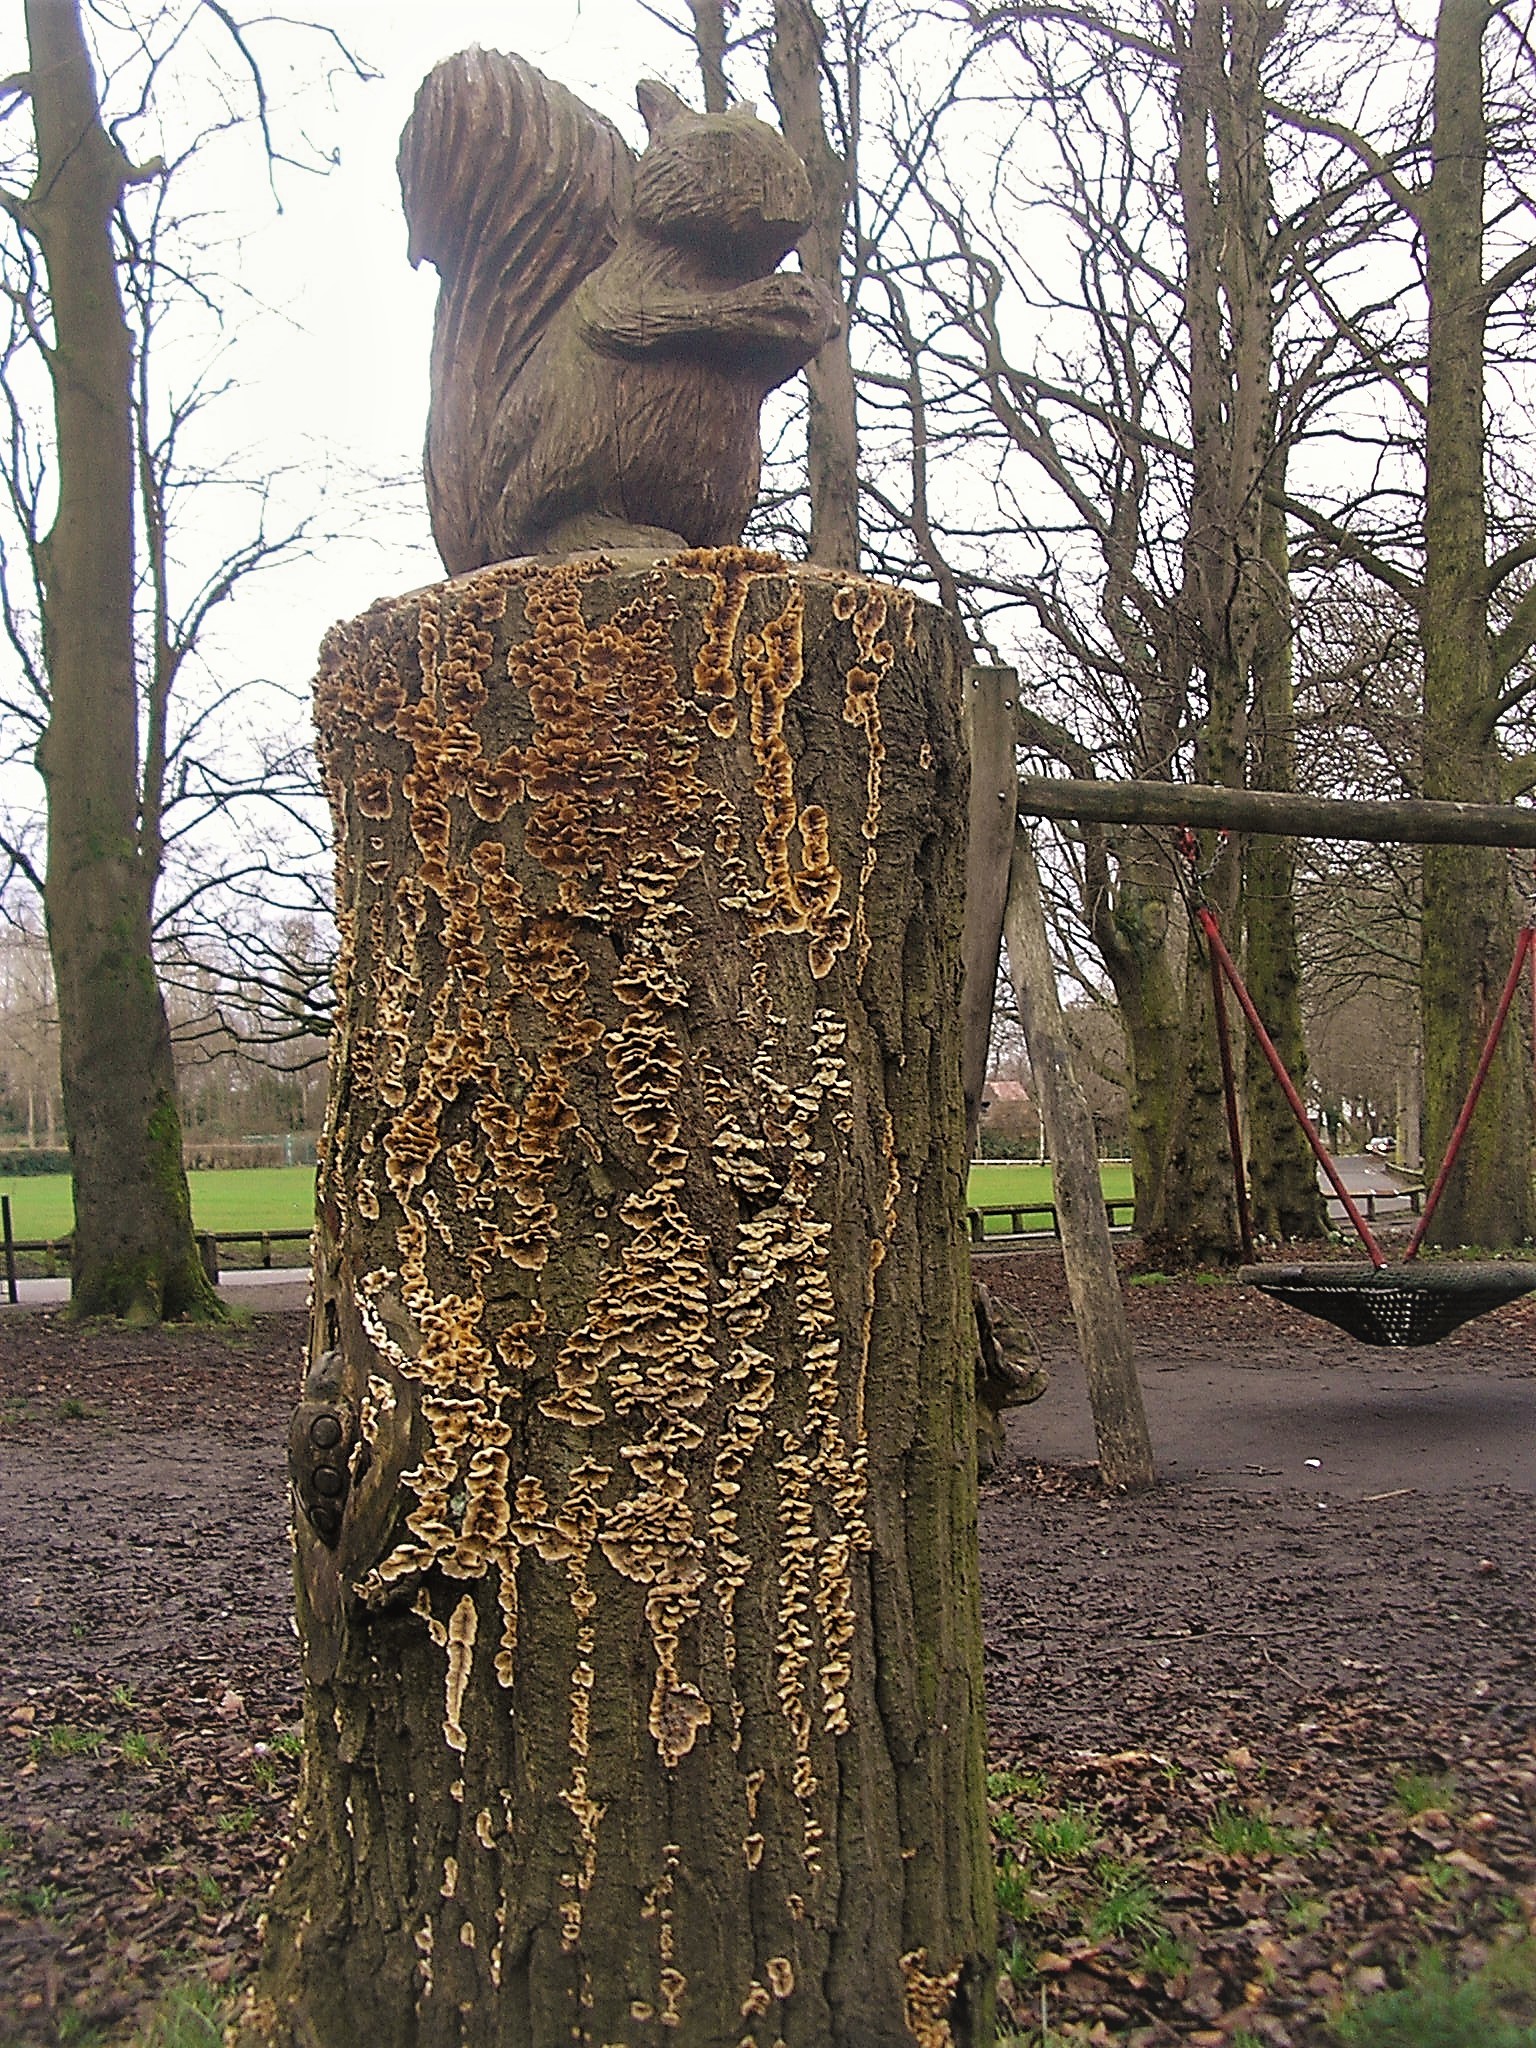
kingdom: Fungi
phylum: Basidiomycota
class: Agaricomycetes
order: Russulales
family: Stereaceae
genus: Stereum
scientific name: Stereum hirsutum
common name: Hairy curtain crust
